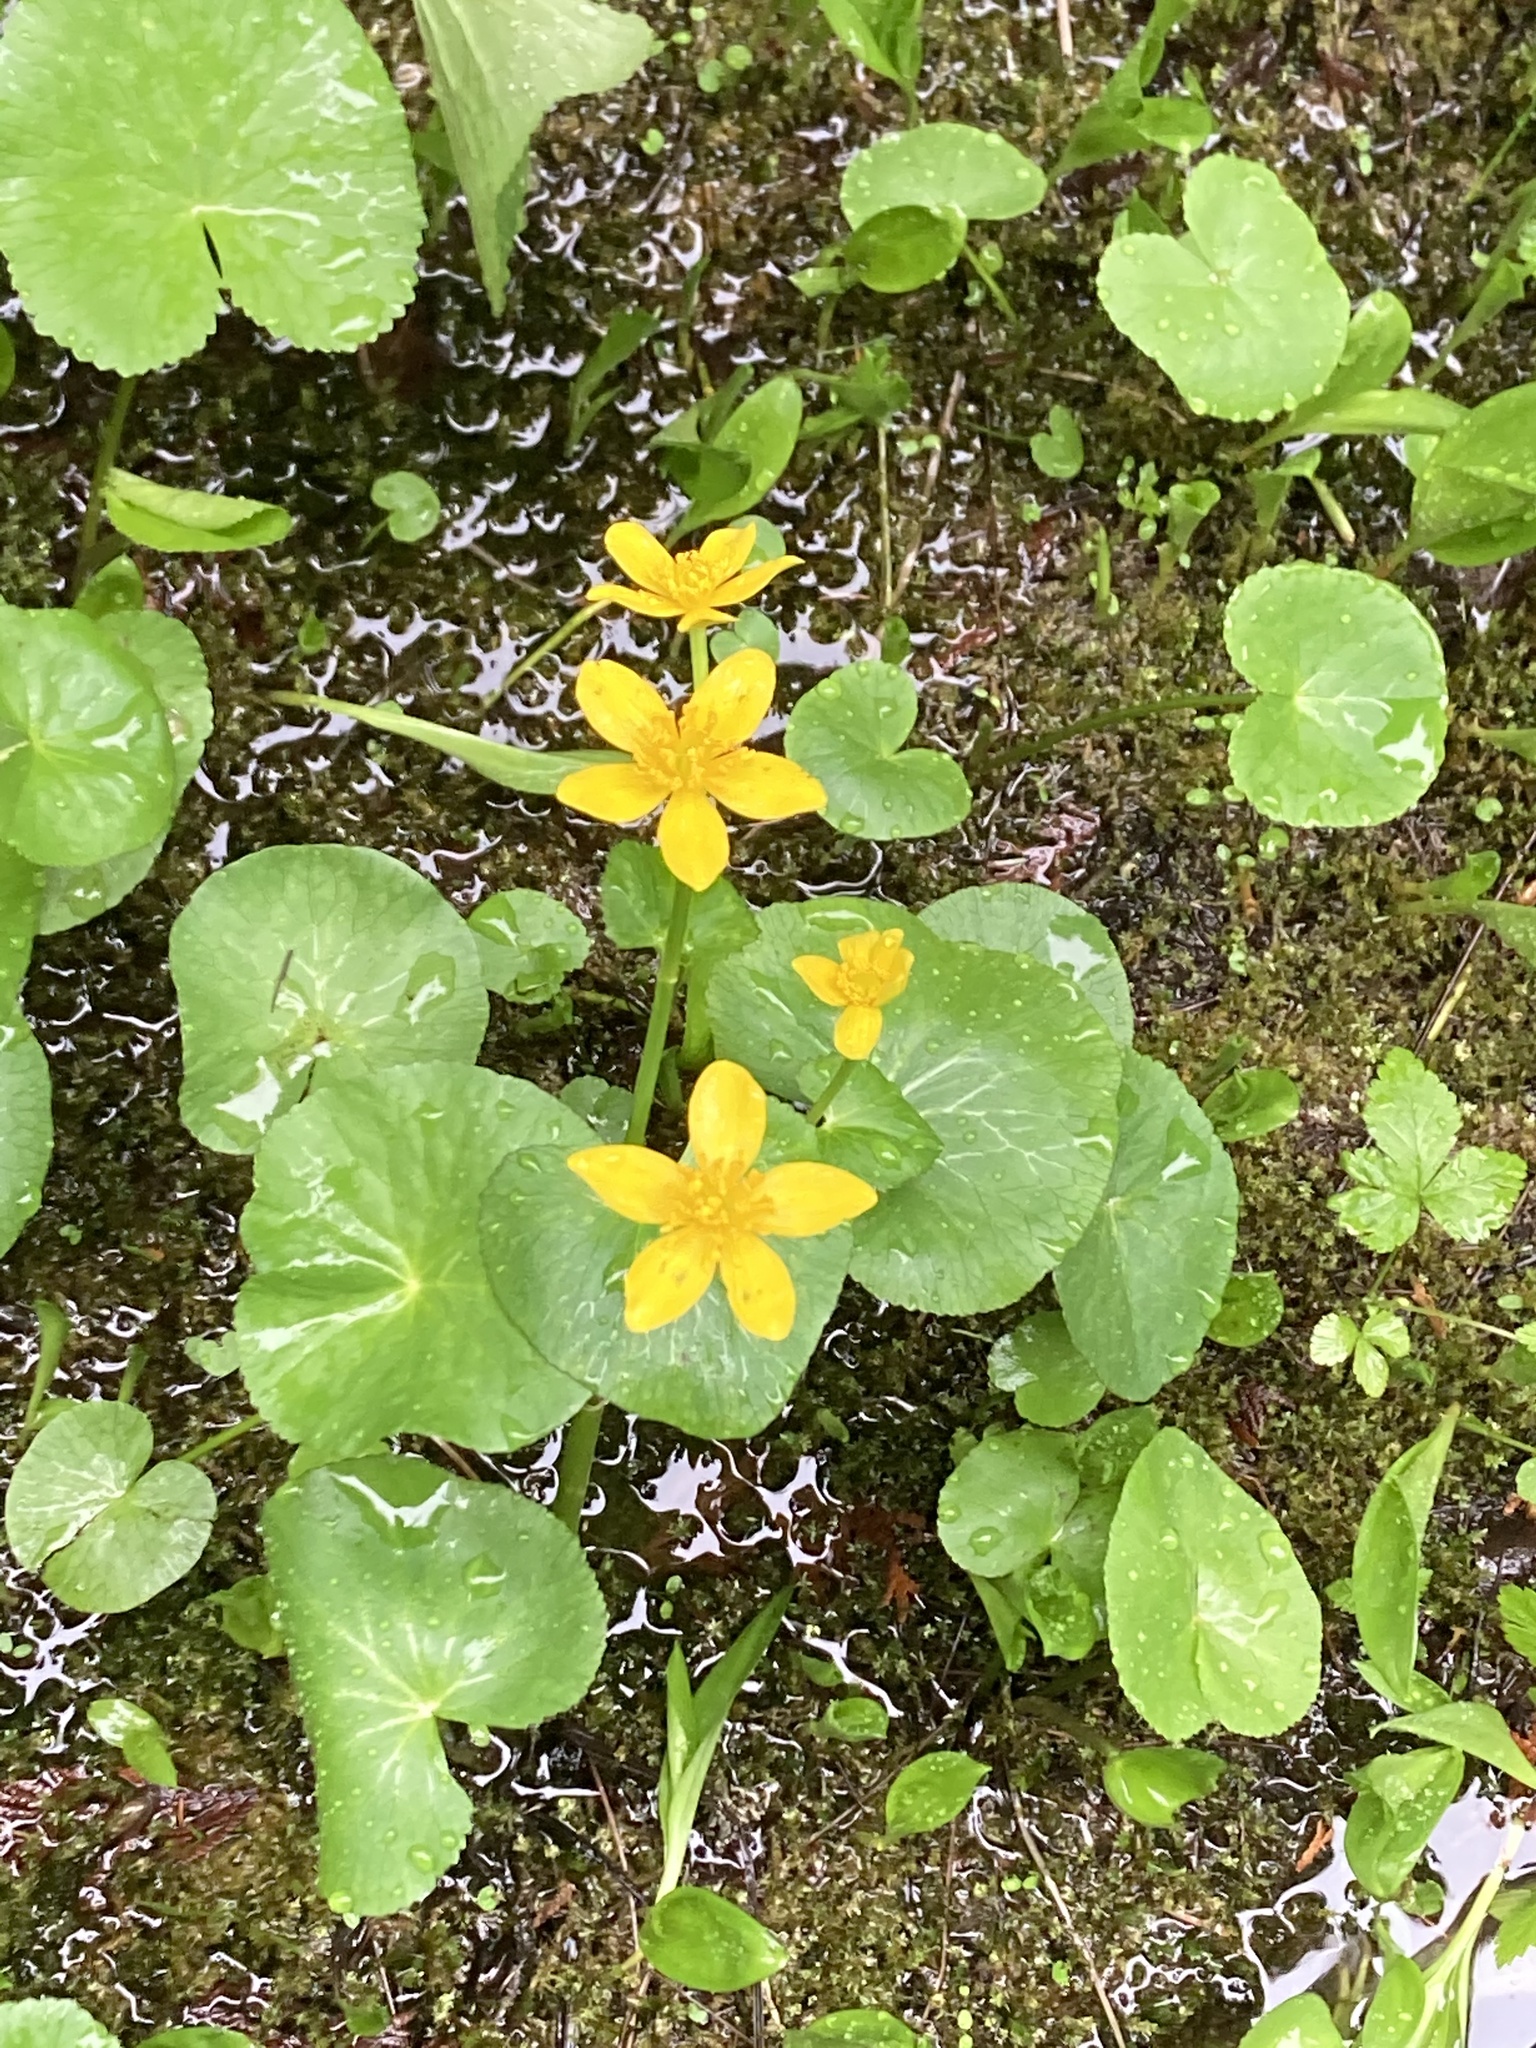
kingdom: Plantae
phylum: Tracheophyta
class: Magnoliopsida
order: Ranunculales
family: Ranunculaceae
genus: Caltha
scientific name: Caltha palustris
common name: Marsh marigold
